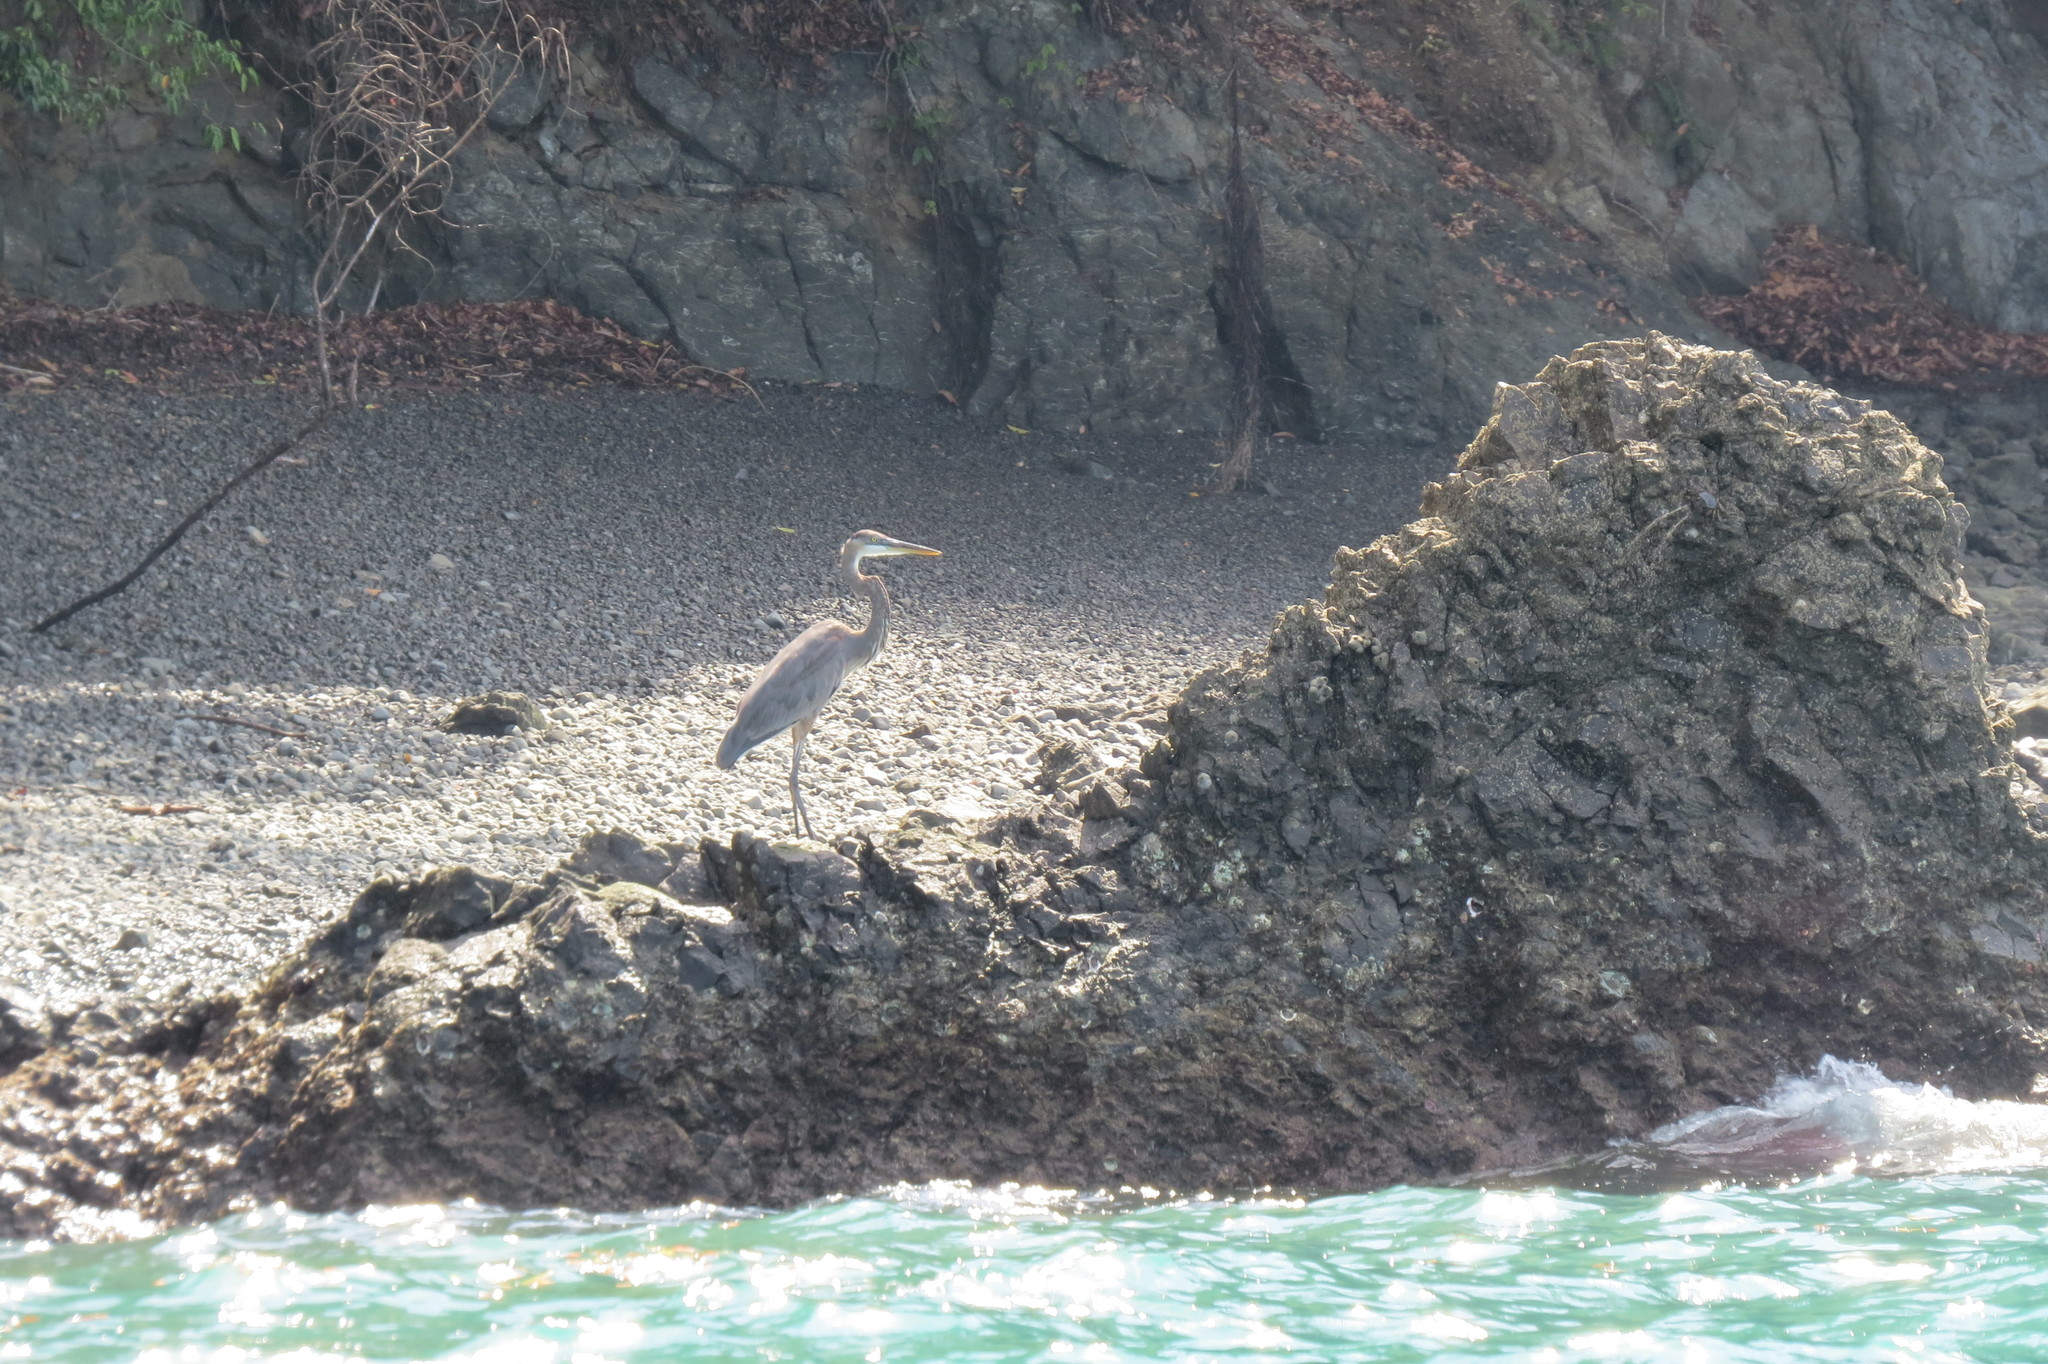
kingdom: Animalia
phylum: Chordata
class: Aves
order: Pelecaniformes
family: Ardeidae
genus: Ardea
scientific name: Ardea herodias
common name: Great blue heron
